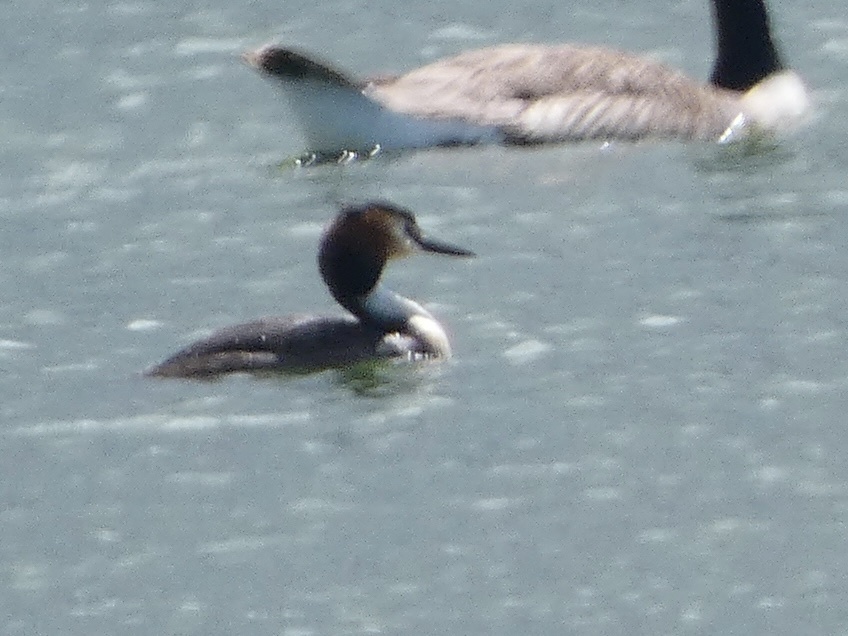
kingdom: Animalia
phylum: Chordata
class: Aves
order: Podicipediformes
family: Podicipedidae
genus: Podiceps
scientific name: Podiceps cristatus
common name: Great crested grebe
